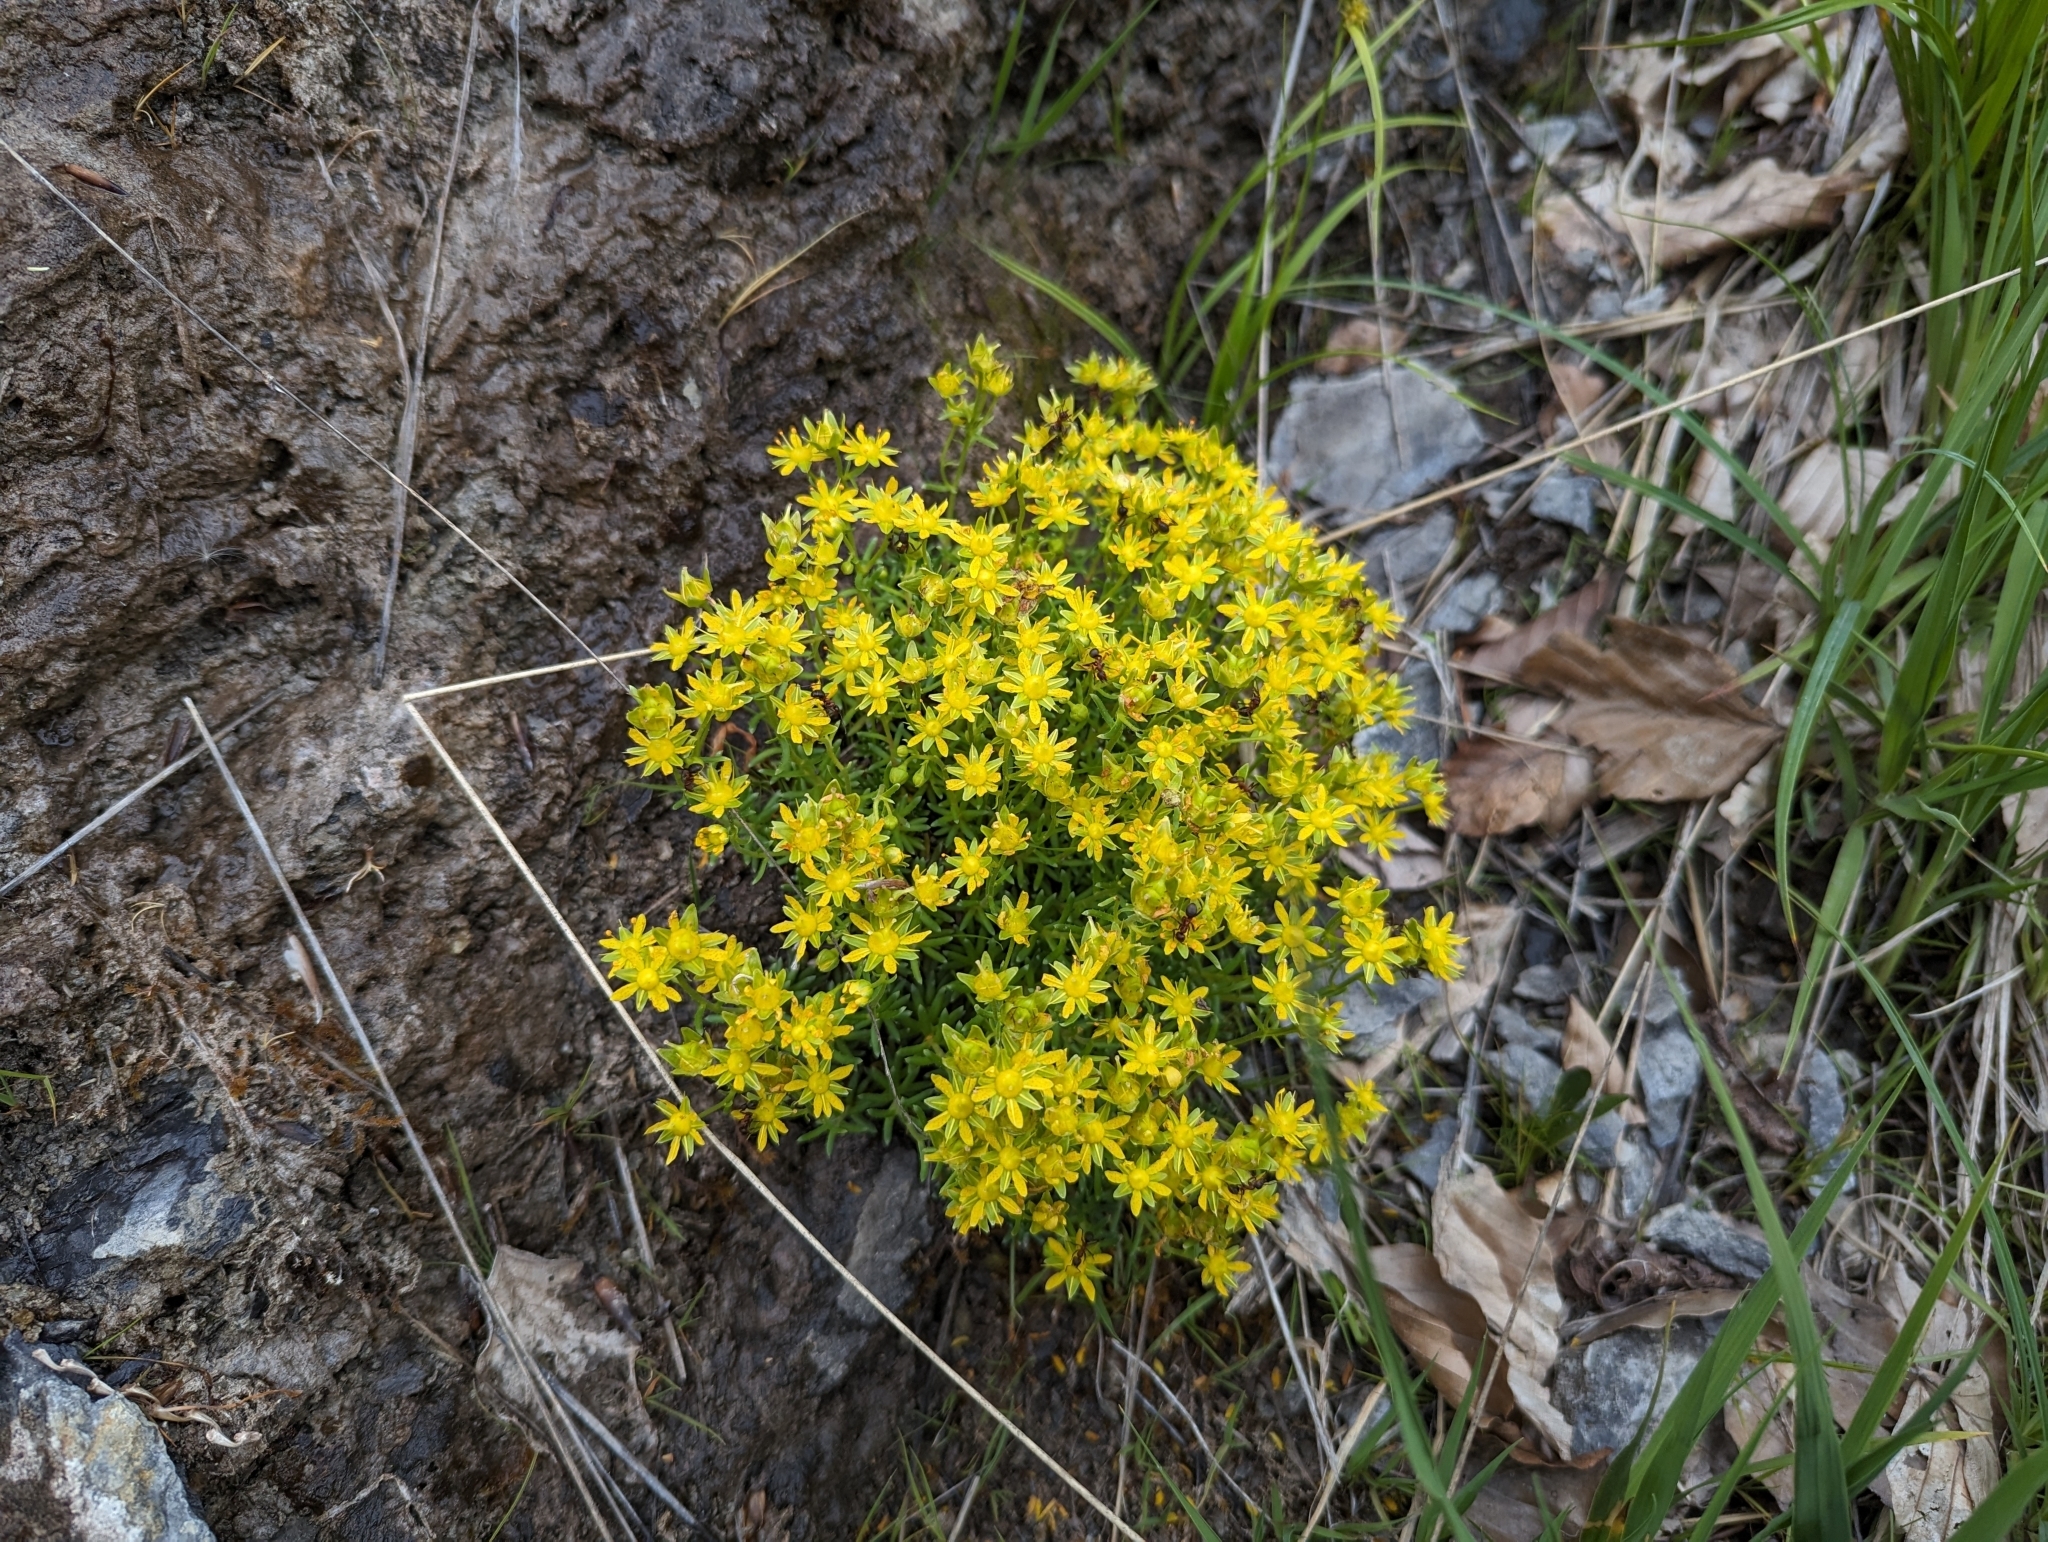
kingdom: Plantae
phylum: Tracheophyta
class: Magnoliopsida
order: Saxifragales
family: Saxifragaceae
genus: Saxifraga
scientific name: Saxifraga aizoides
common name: Yellow mountain saxifrage
